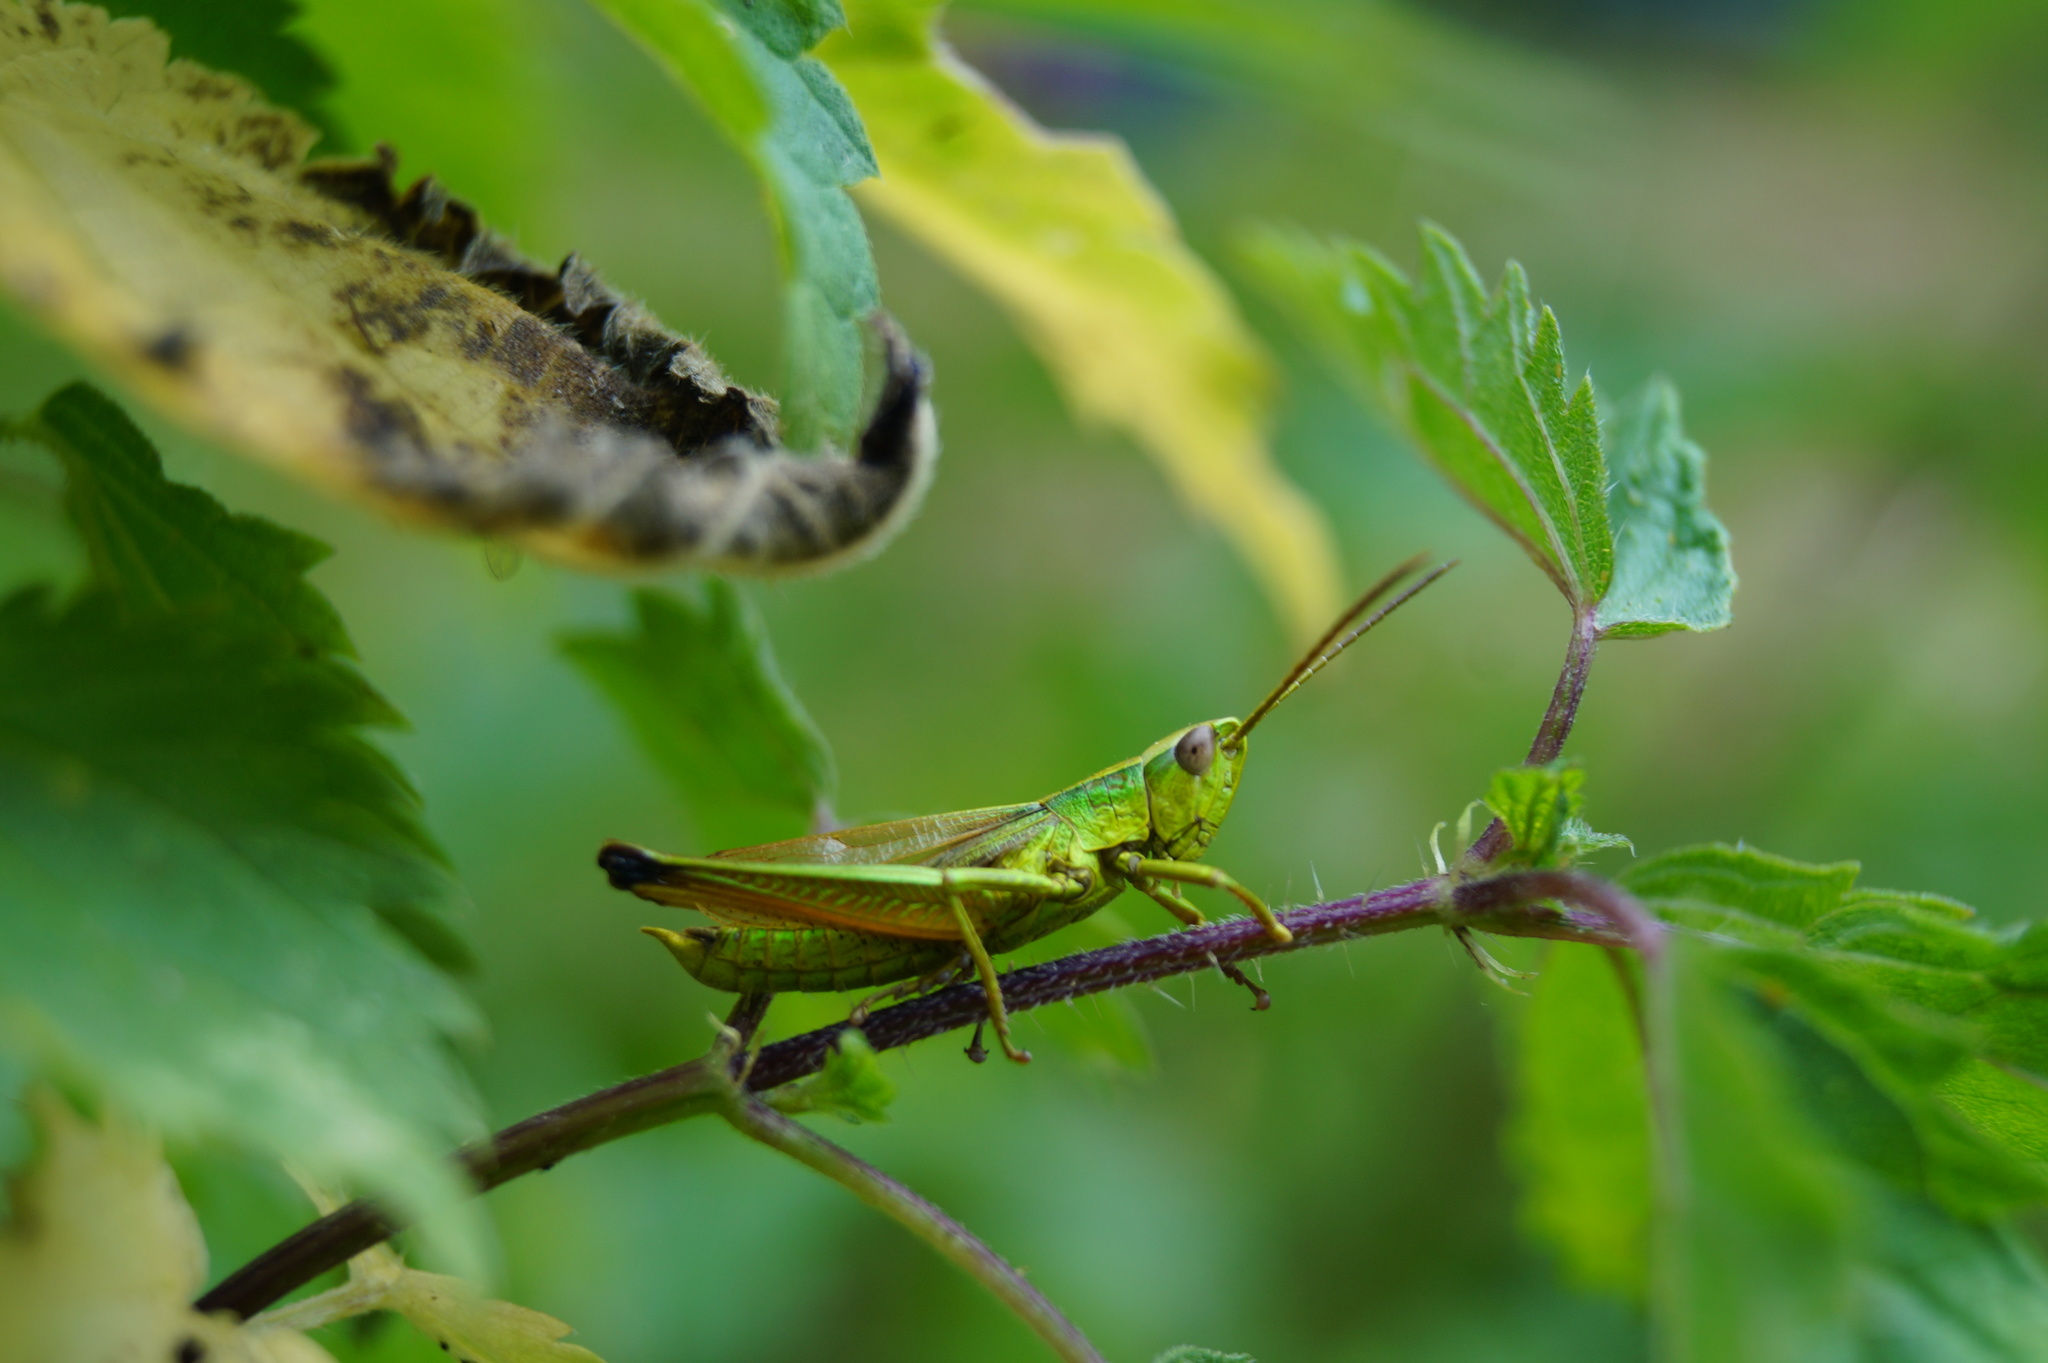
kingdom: Animalia
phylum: Arthropoda
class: Insecta
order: Orthoptera
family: Acrididae
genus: Chrysochraon
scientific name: Chrysochraon dispar
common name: Large gold grasshopper
